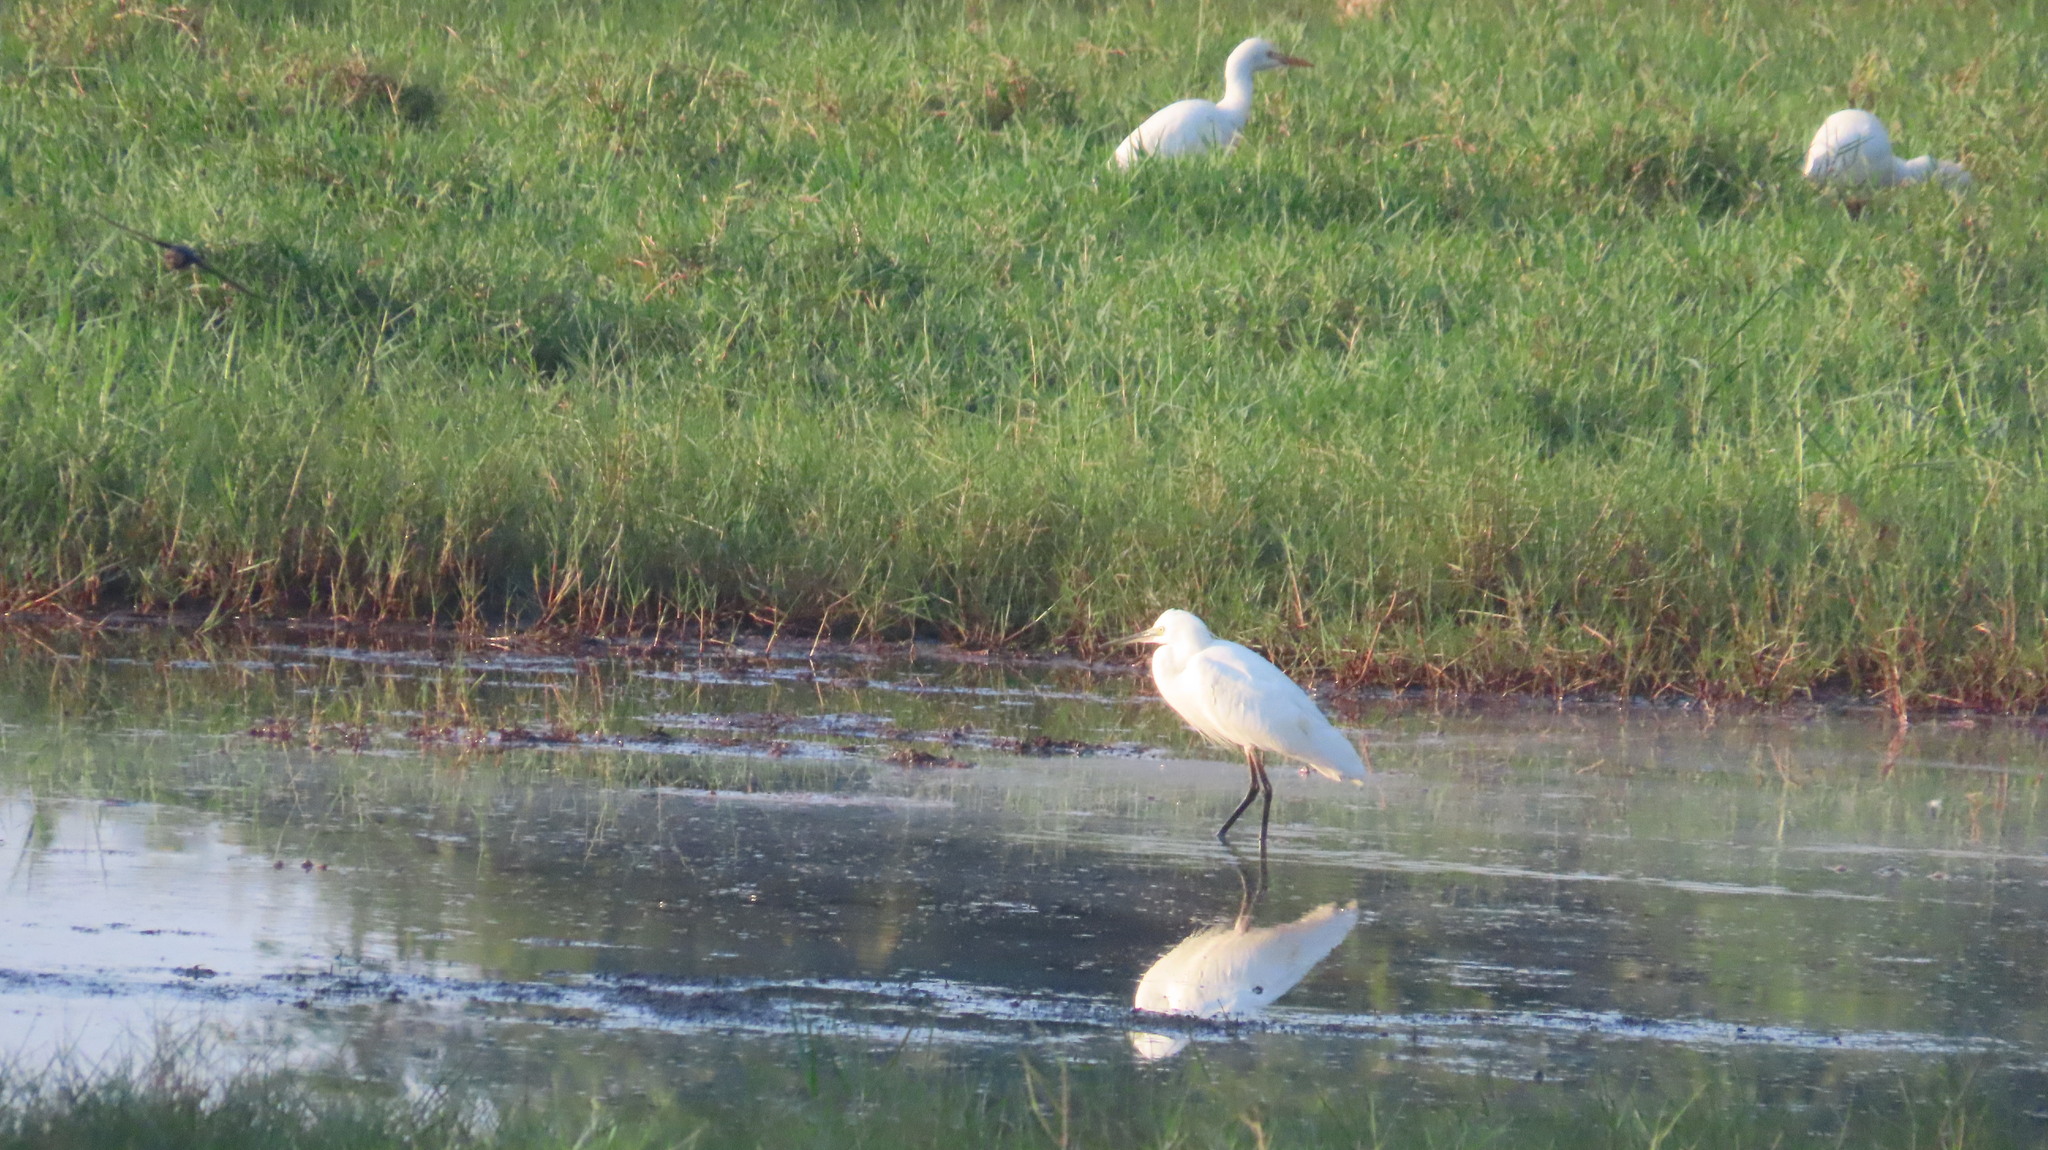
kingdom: Animalia
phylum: Chordata
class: Aves
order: Pelecaniformes
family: Ardeidae
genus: Egretta
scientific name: Egretta garzetta
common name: Little egret
